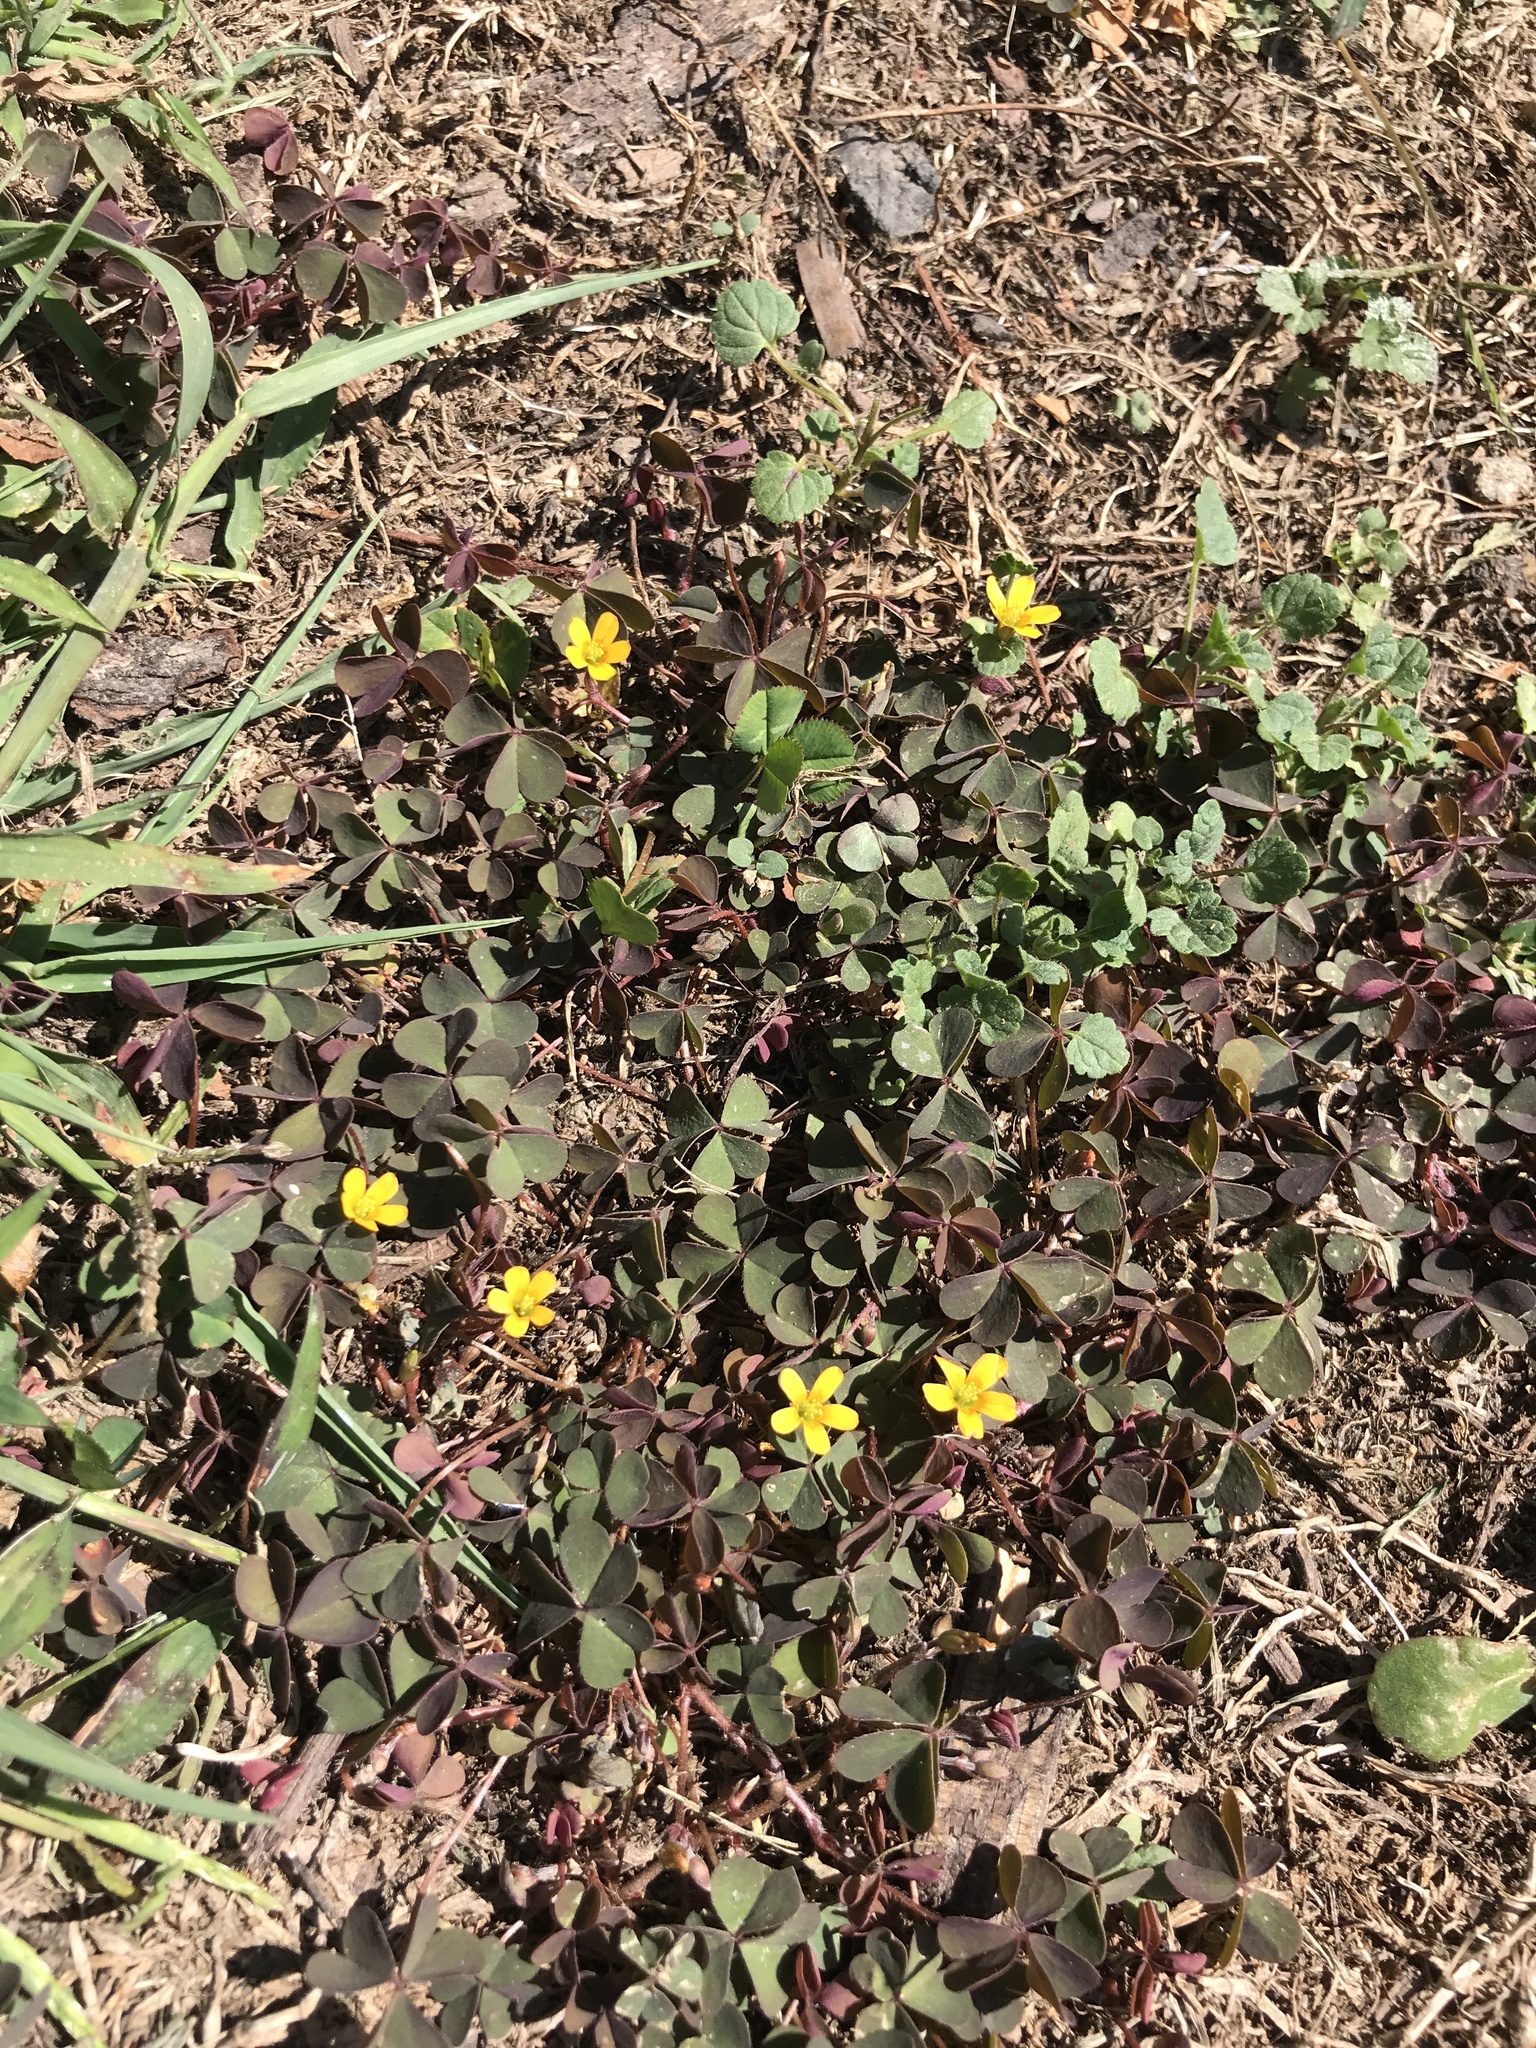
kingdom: Plantae
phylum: Tracheophyta
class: Magnoliopsida
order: Oxalidales
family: Oxalidaceae
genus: Oxalis
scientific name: Oxalis corniculata
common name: Procumbent yellow-sorrel
